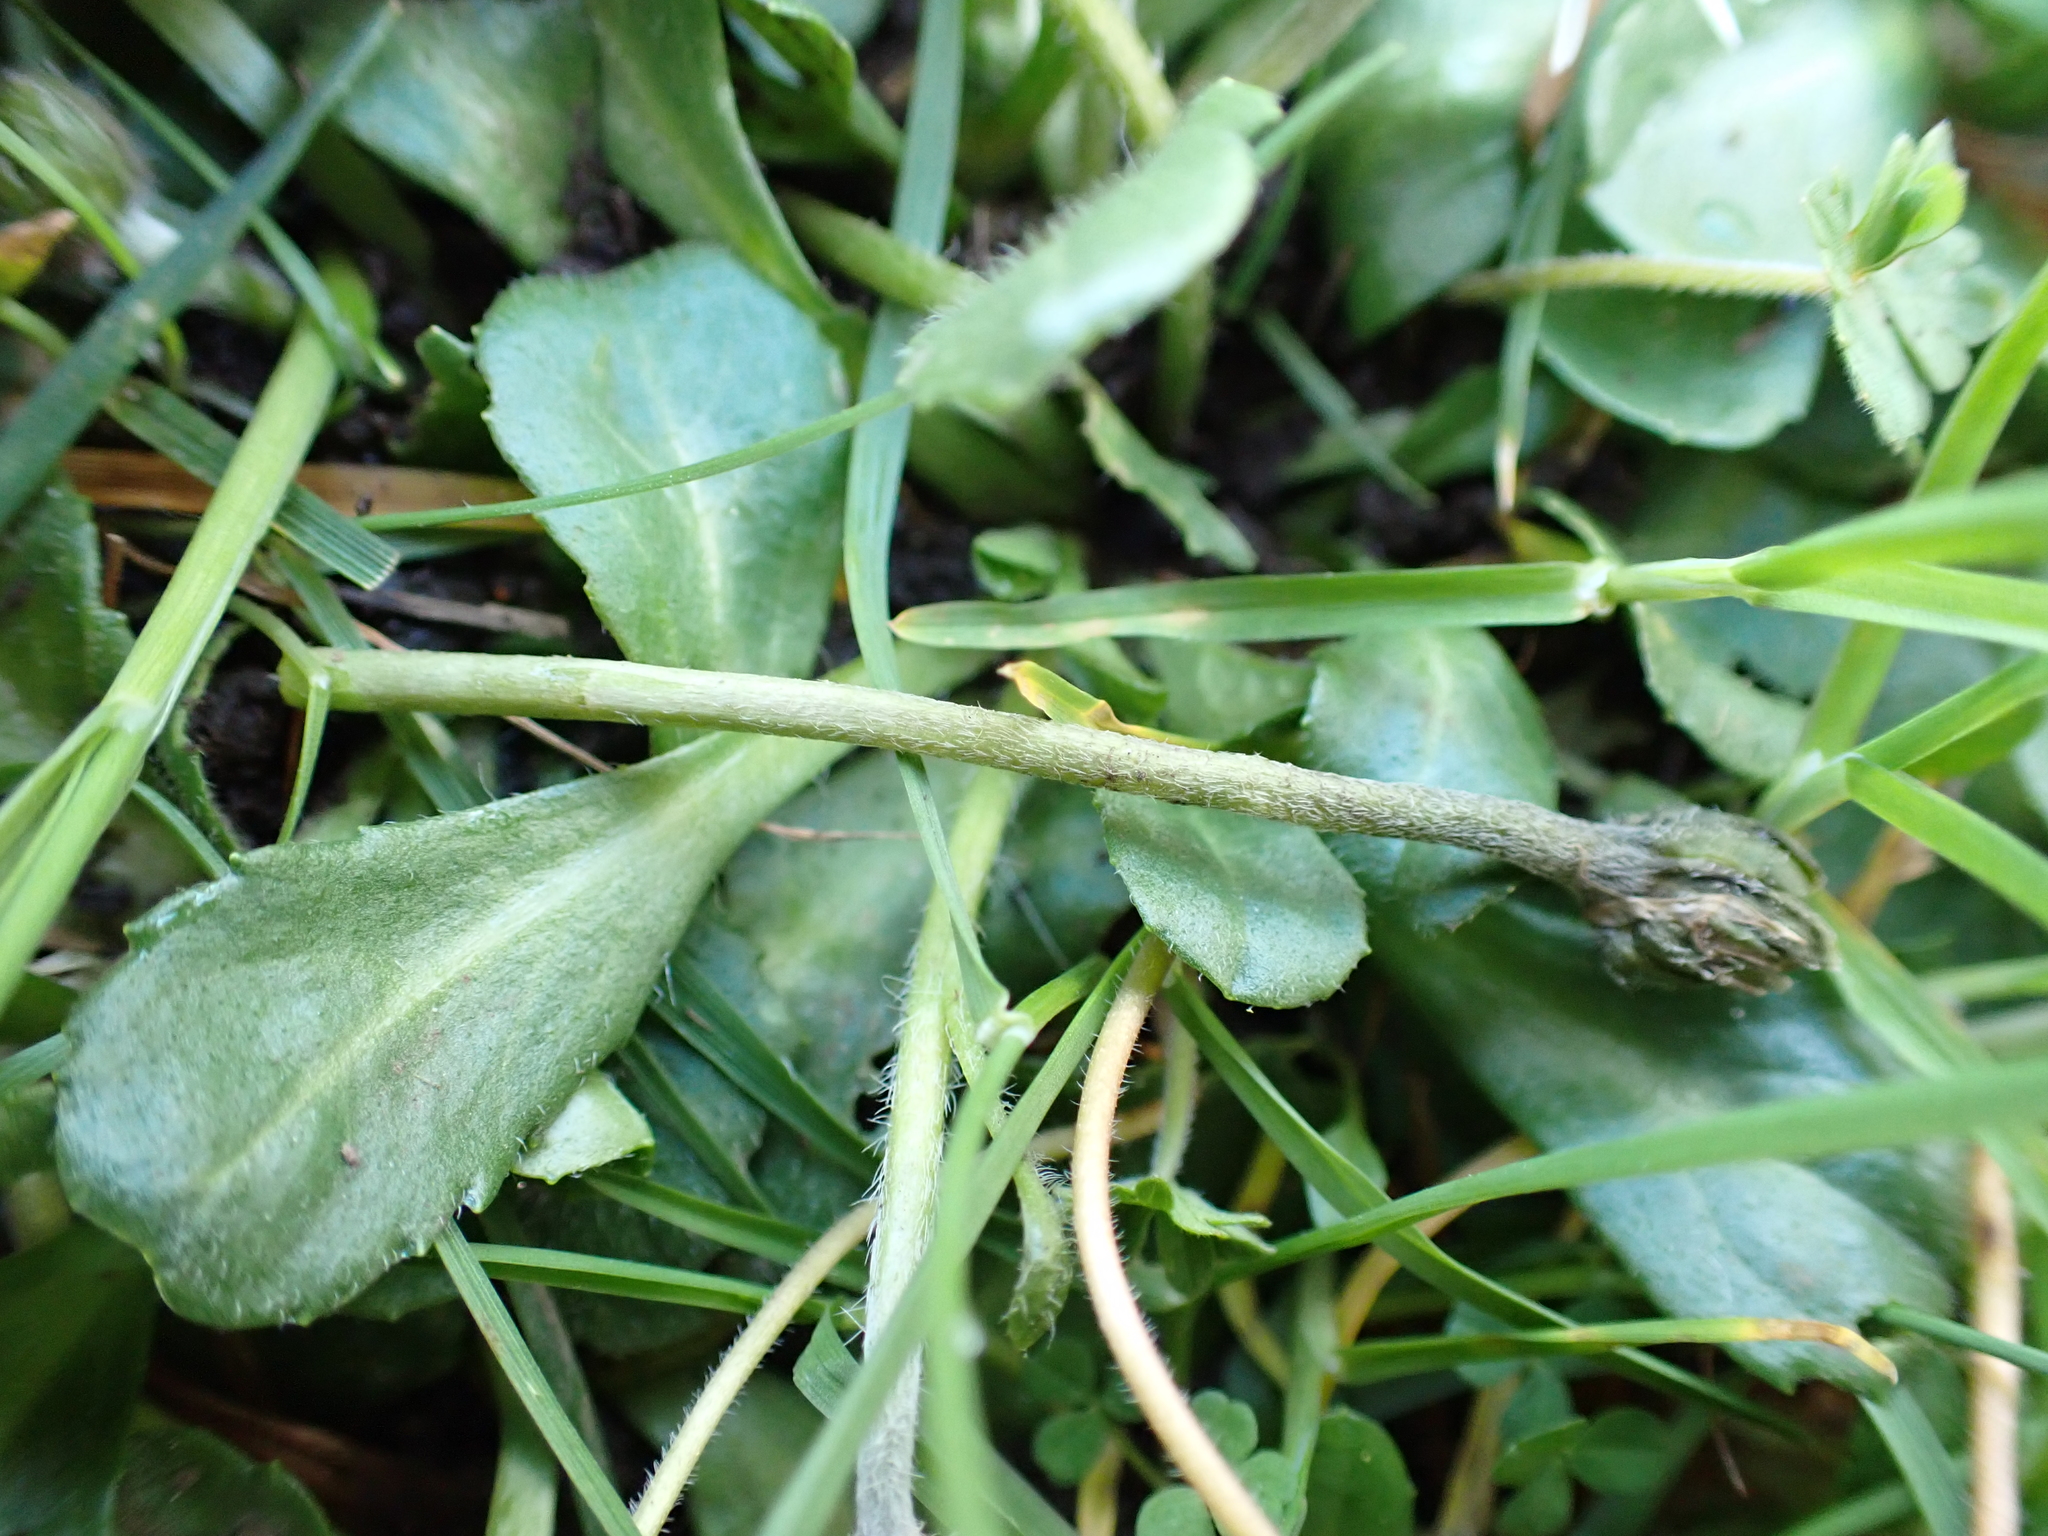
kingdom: Plantae
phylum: Tracheophyta
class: Magnoliopsida
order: Asterales
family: Asteraceae
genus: Bellis
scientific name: Bellis perennis
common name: Lawndaisy
